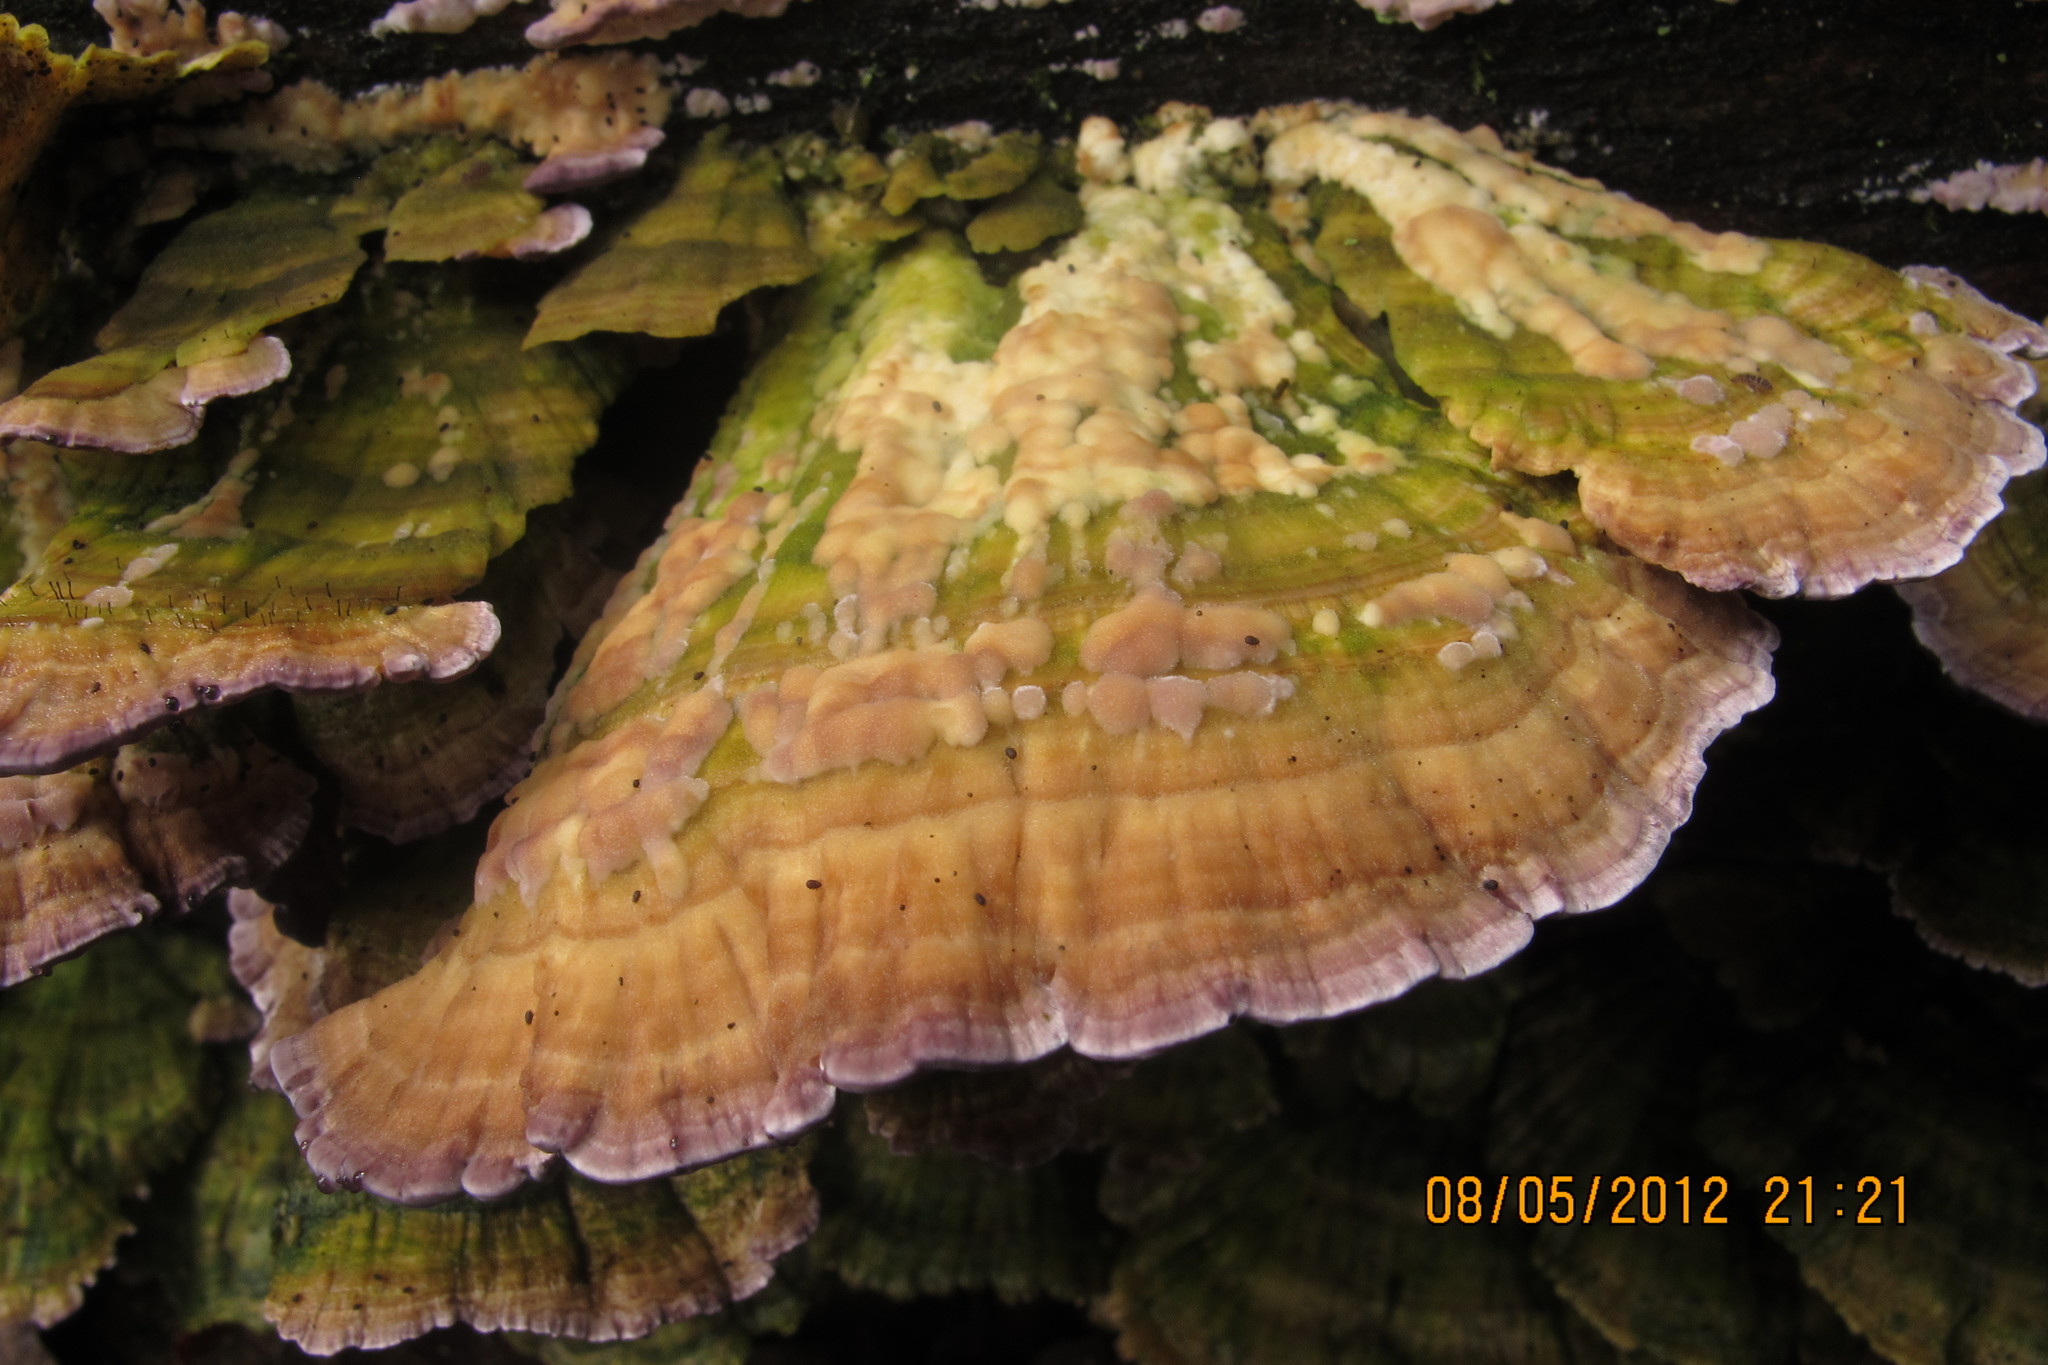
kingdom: Fungi
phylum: Basidiomycota
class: Agaricomycetes
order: Hymenochaetales
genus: Trichaptum
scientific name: Trichaptum biforme
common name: Violet-toothed polypore
